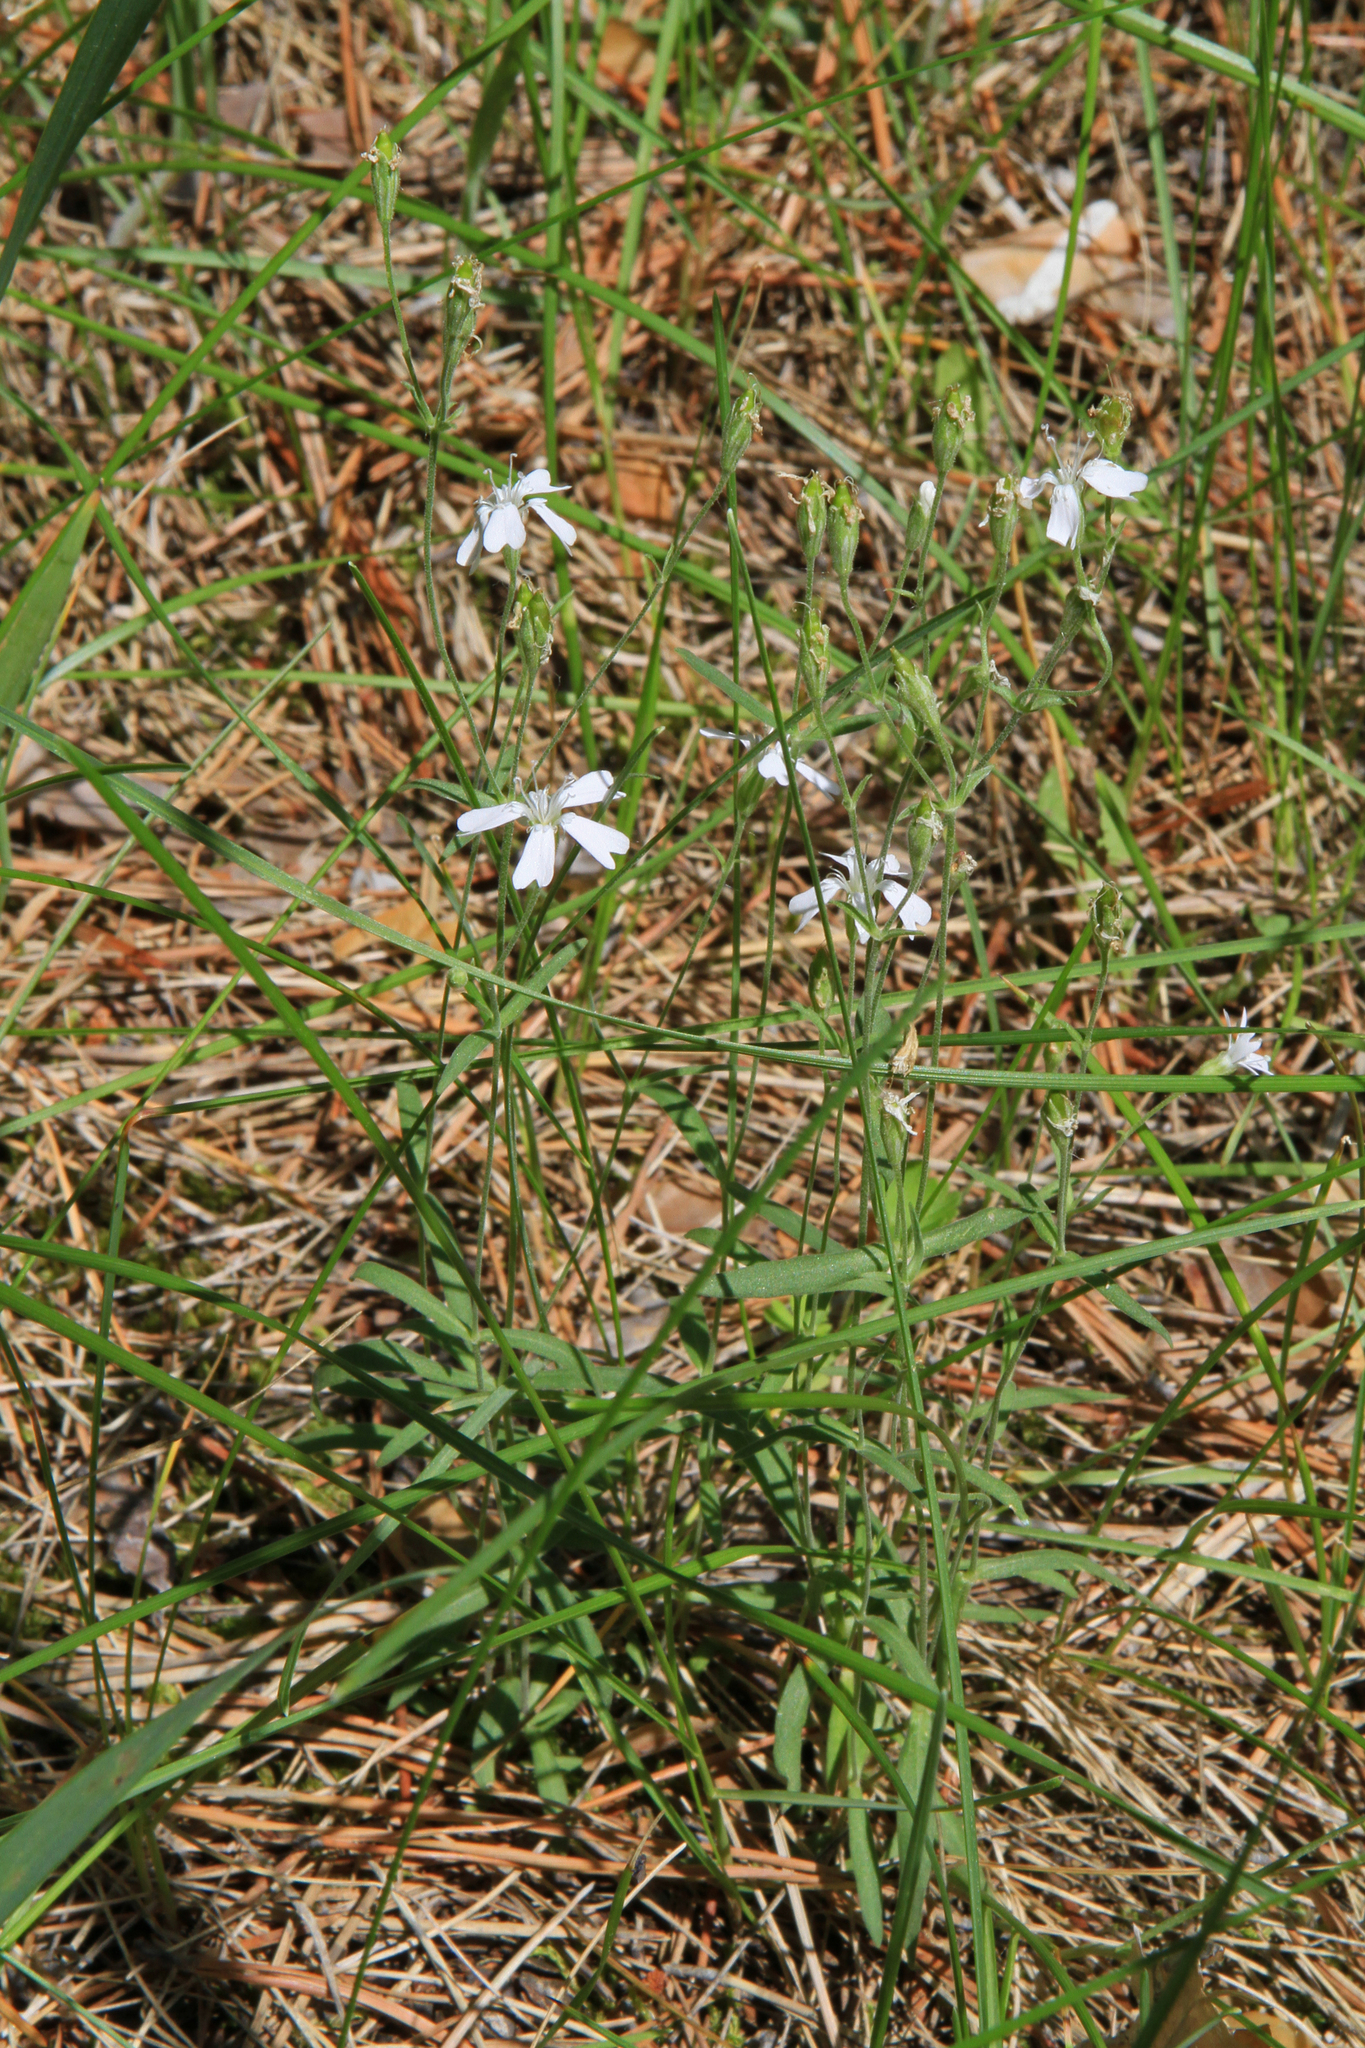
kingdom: Plantae
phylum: Tracheophyta
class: Magnoliopsida
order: Caryophyllales
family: Caryophyllaceae
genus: Silene
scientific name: Silene orientalimongolica
